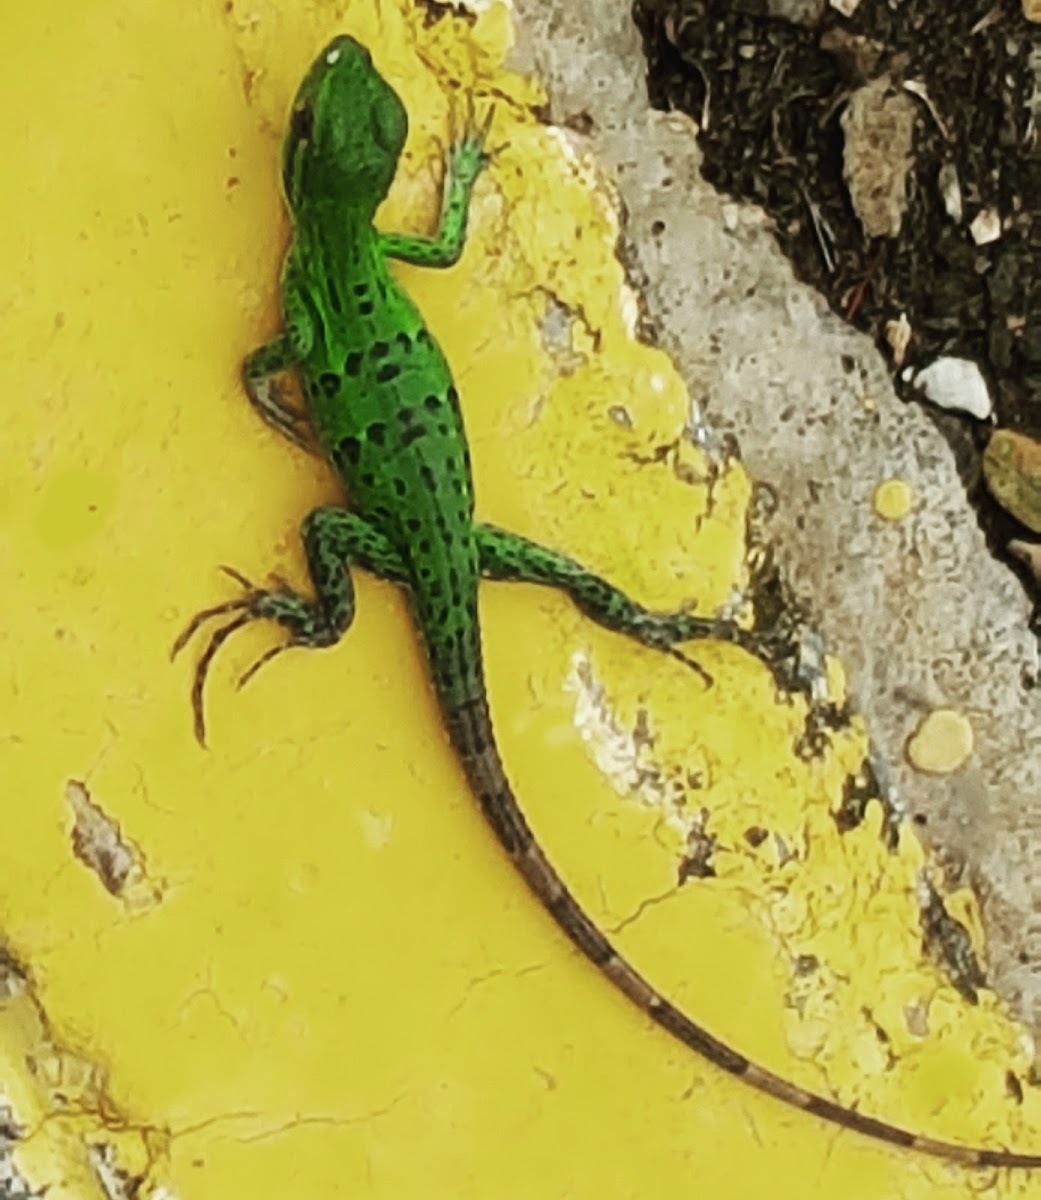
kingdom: Animalia
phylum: Chordata
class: Squamata
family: Iguanidae
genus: Ctenosaura
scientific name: Ctenosaura similis
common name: Black spiny-tailed iguana
